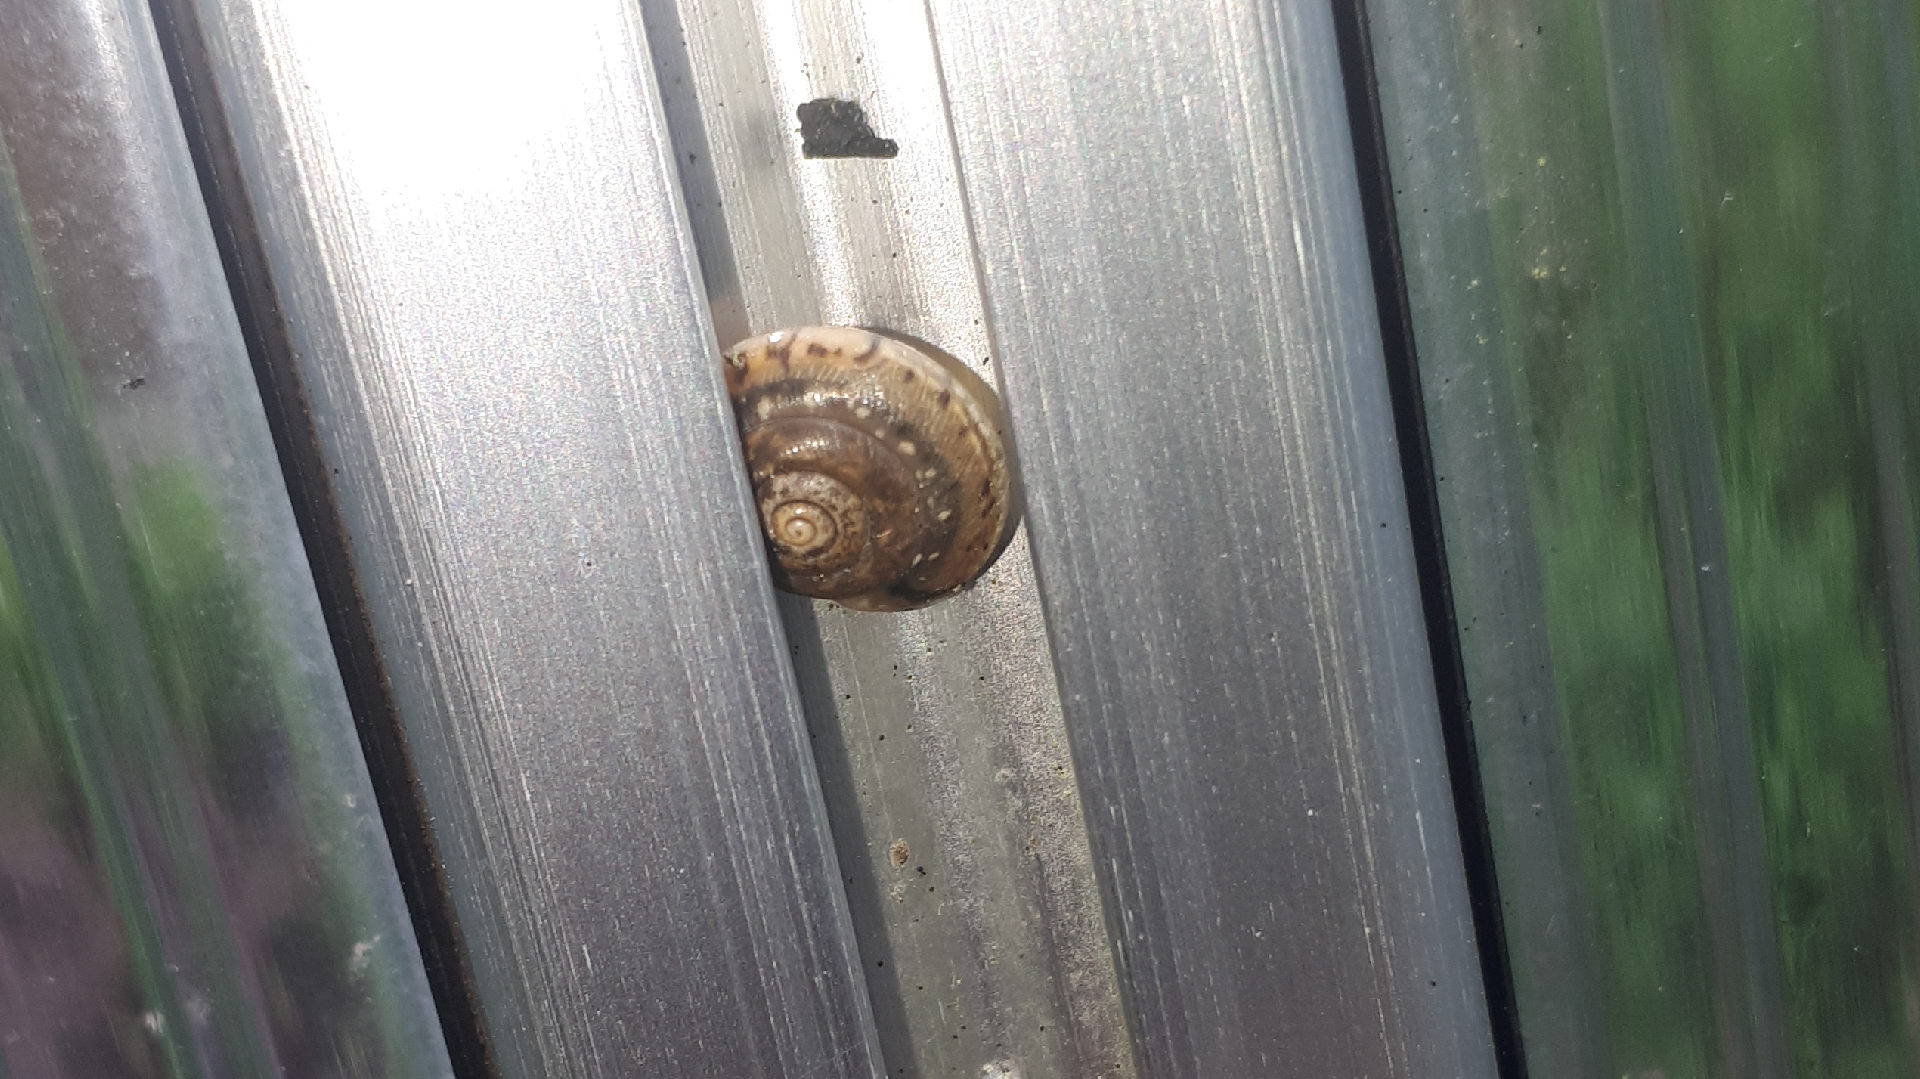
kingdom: Animalia
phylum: Mollusca
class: Gastropoda
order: Stylommatophora
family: Hygromiidae
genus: Hygromia
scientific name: Hygromia cinctella
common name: Girdled snail
